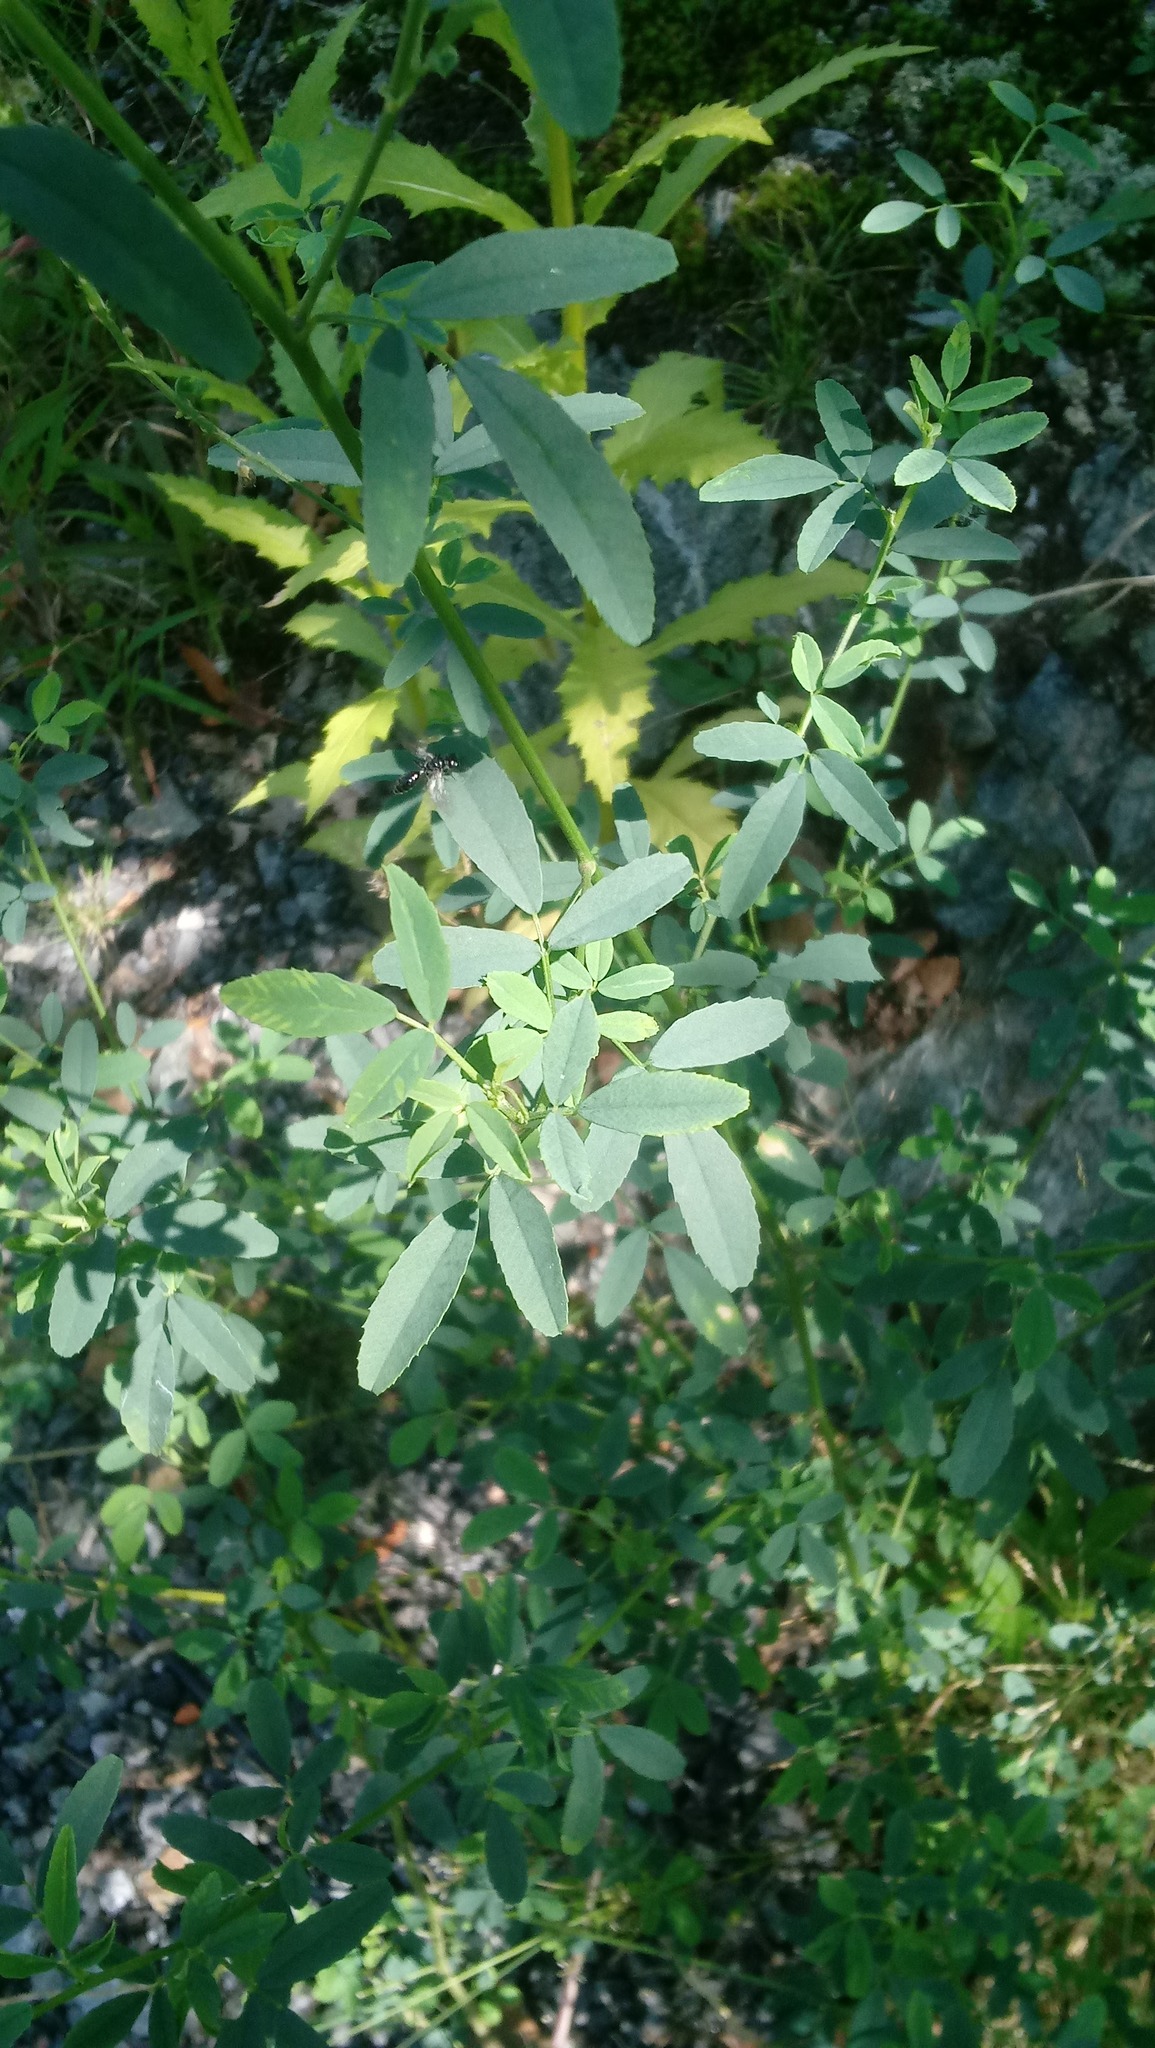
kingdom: Plantae
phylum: Tracheophyta
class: Magnoliopsida
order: Fabales
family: Fabaceae
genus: Melilotus
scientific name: Melilotus
